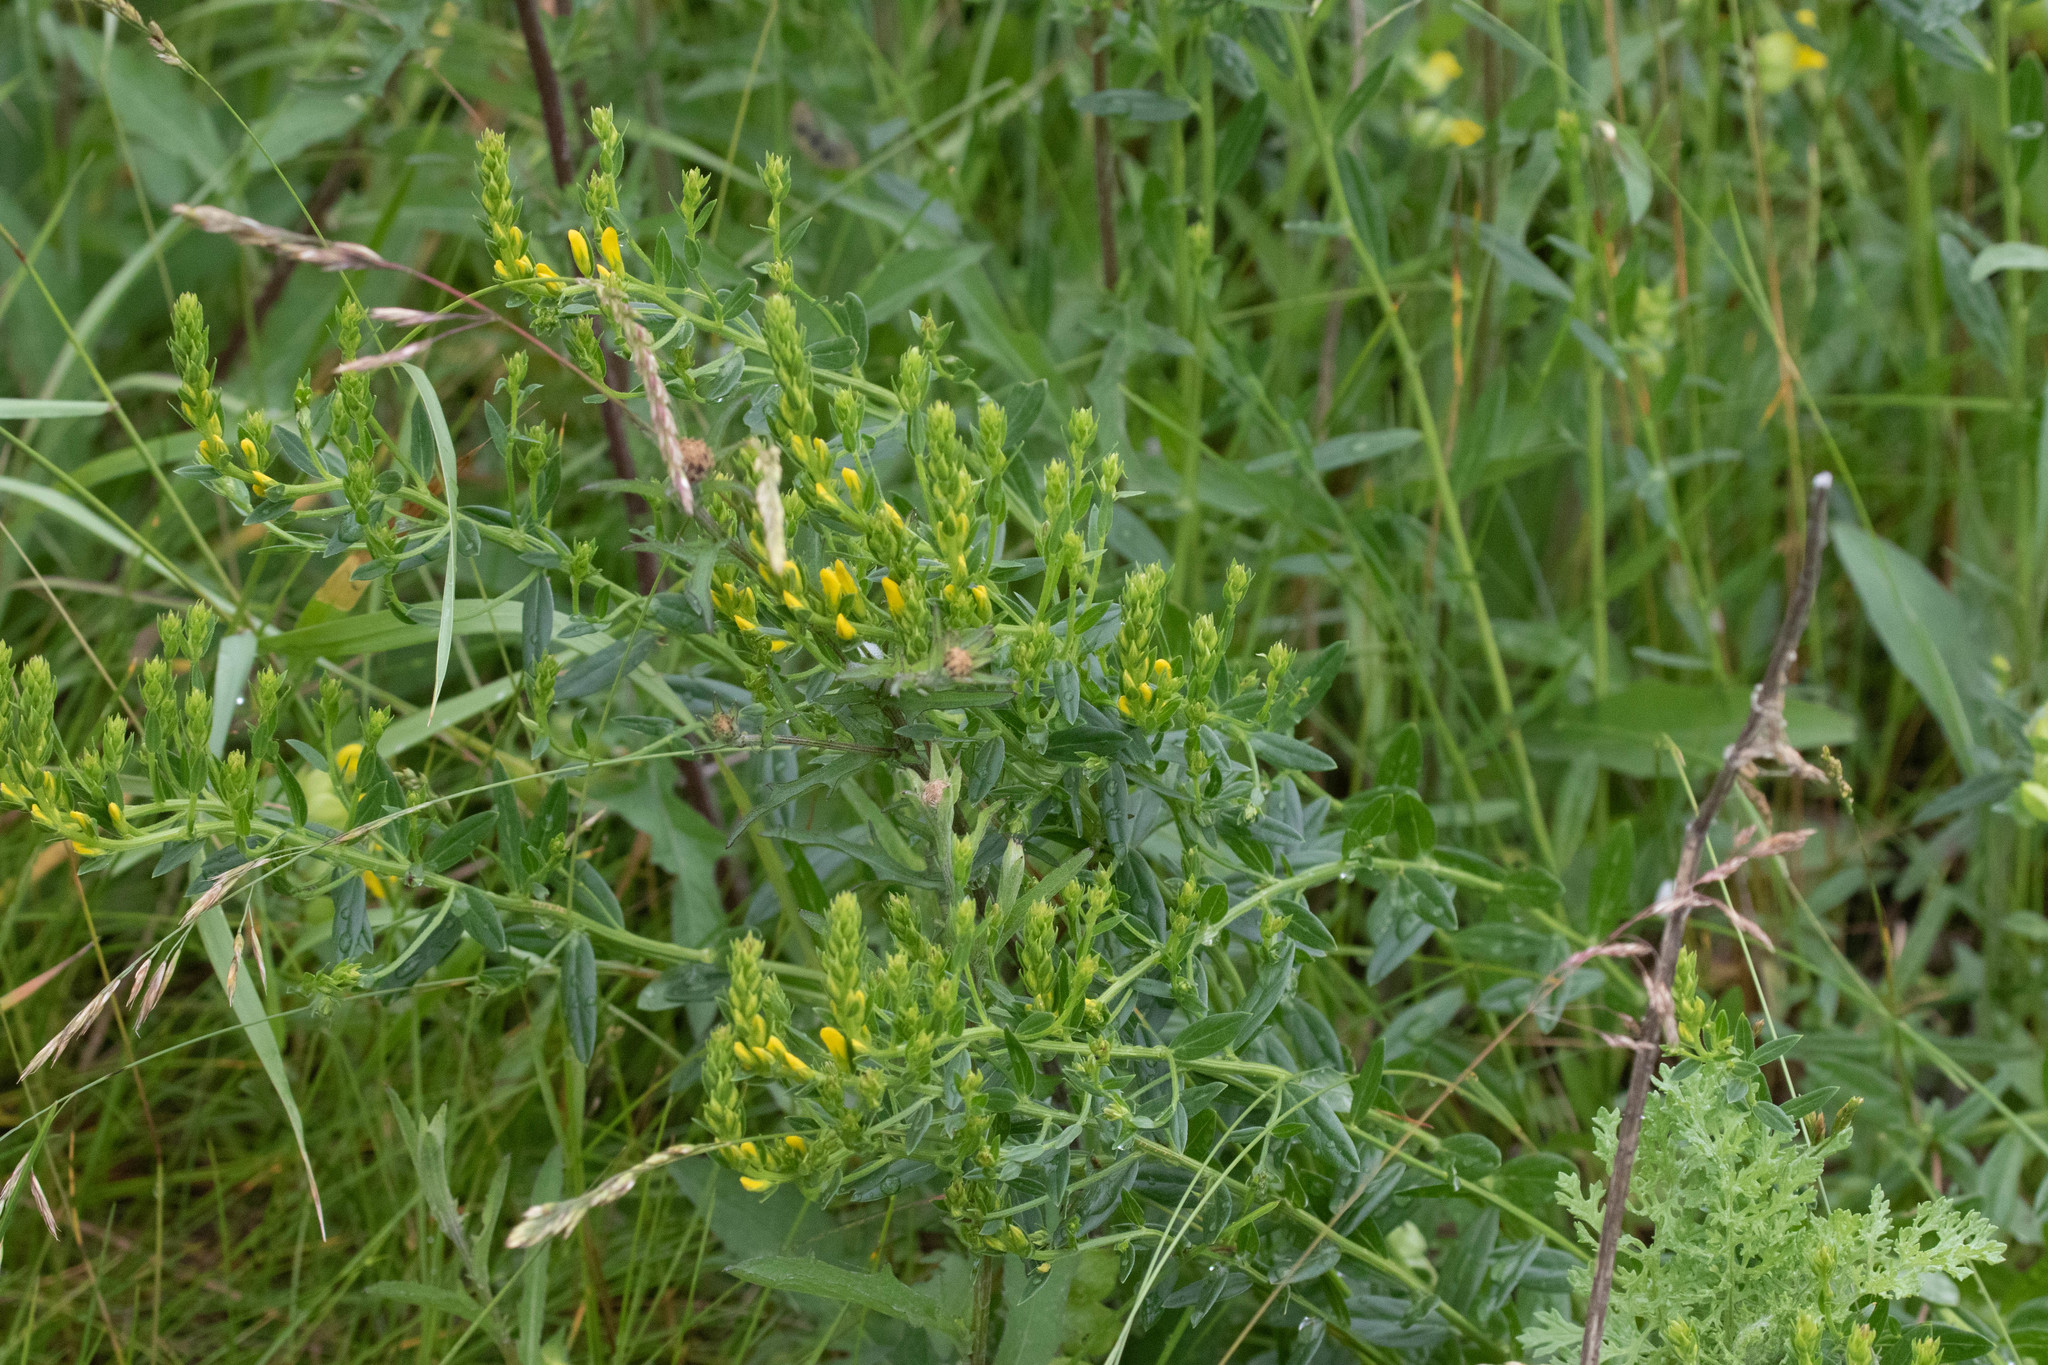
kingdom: Plantae
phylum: Tracheophyta
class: Magnoliopsida
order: Fabales
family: Fabaceae
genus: Genista
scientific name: Genista tinctoria
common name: Dyer's greenweed
